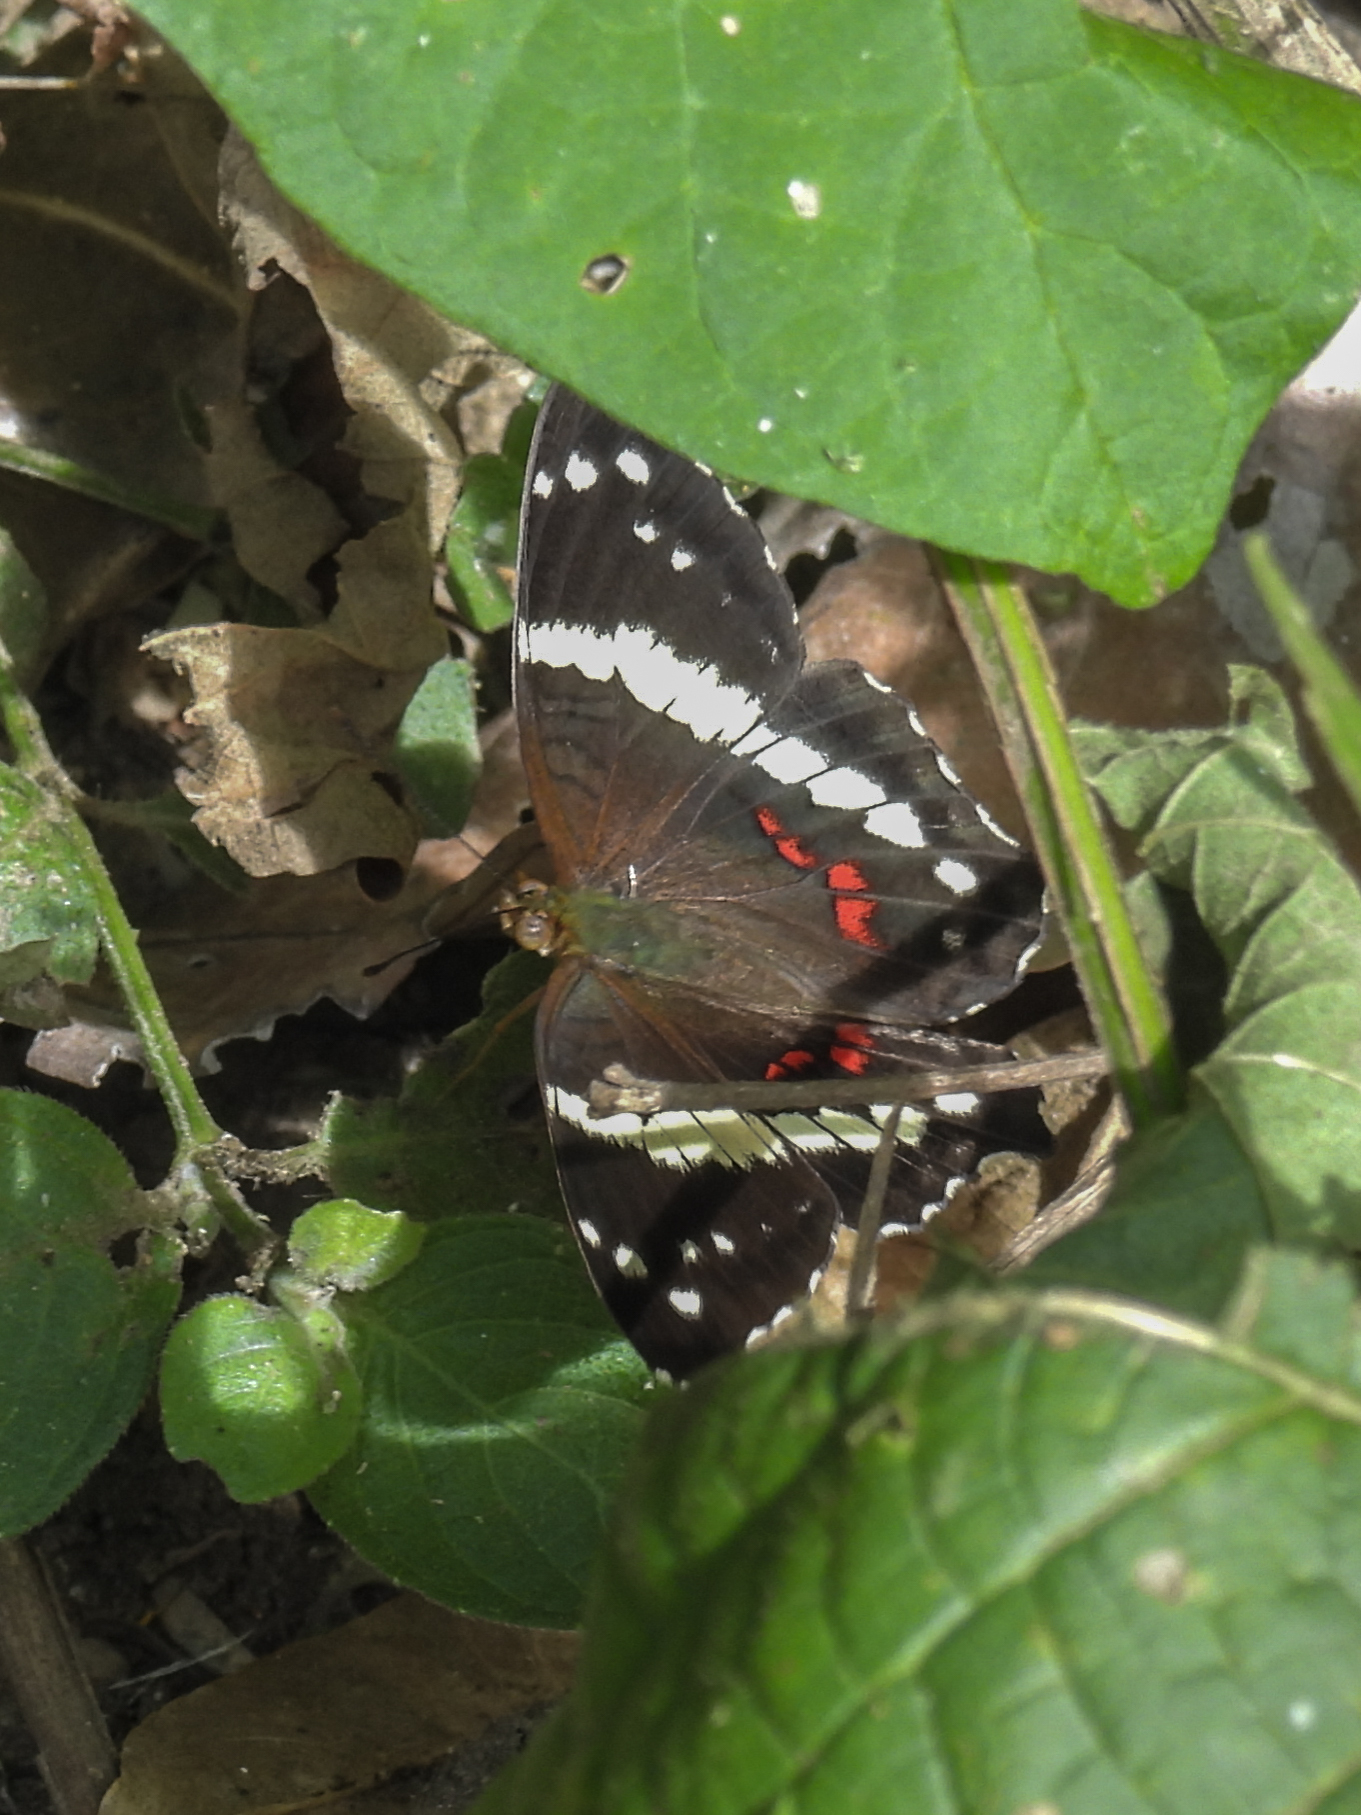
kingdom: Animalia
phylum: Arthropoda
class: Insecta
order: Lepidoptera
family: Nymphalidae
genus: Anartia
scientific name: Anartia fatima
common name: Banded peacock
